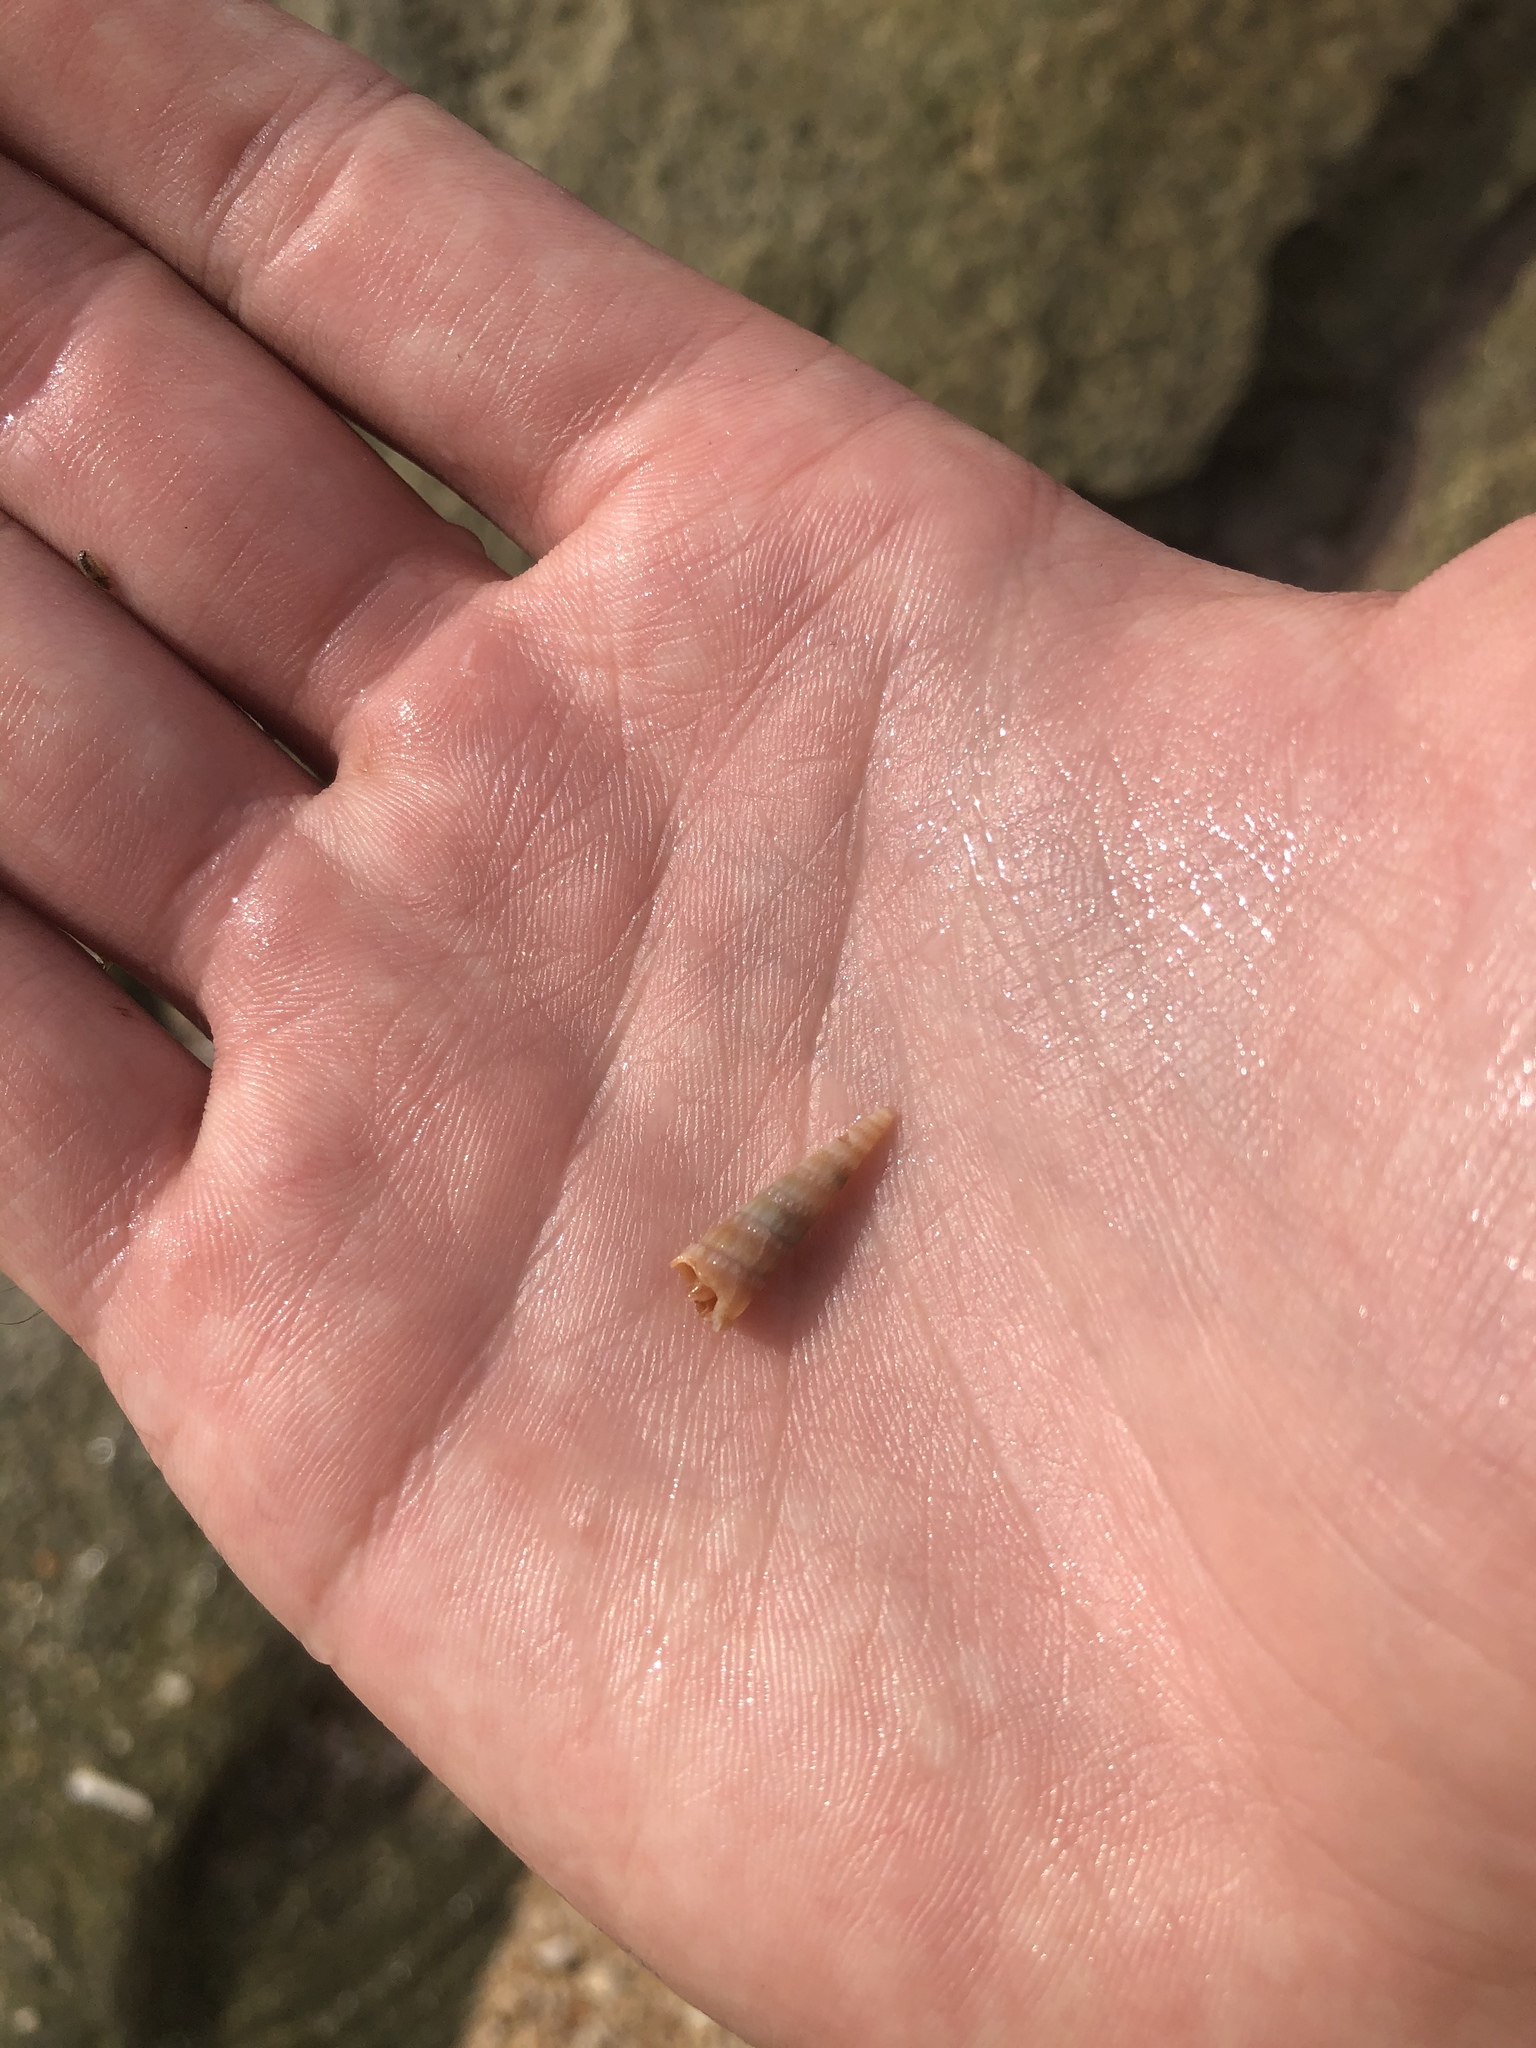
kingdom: Animalia
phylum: Mollusca
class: Gastropoda
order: Neogastropoda
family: Terebridae
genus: Neoterebra
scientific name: Neoterebra dislocata
